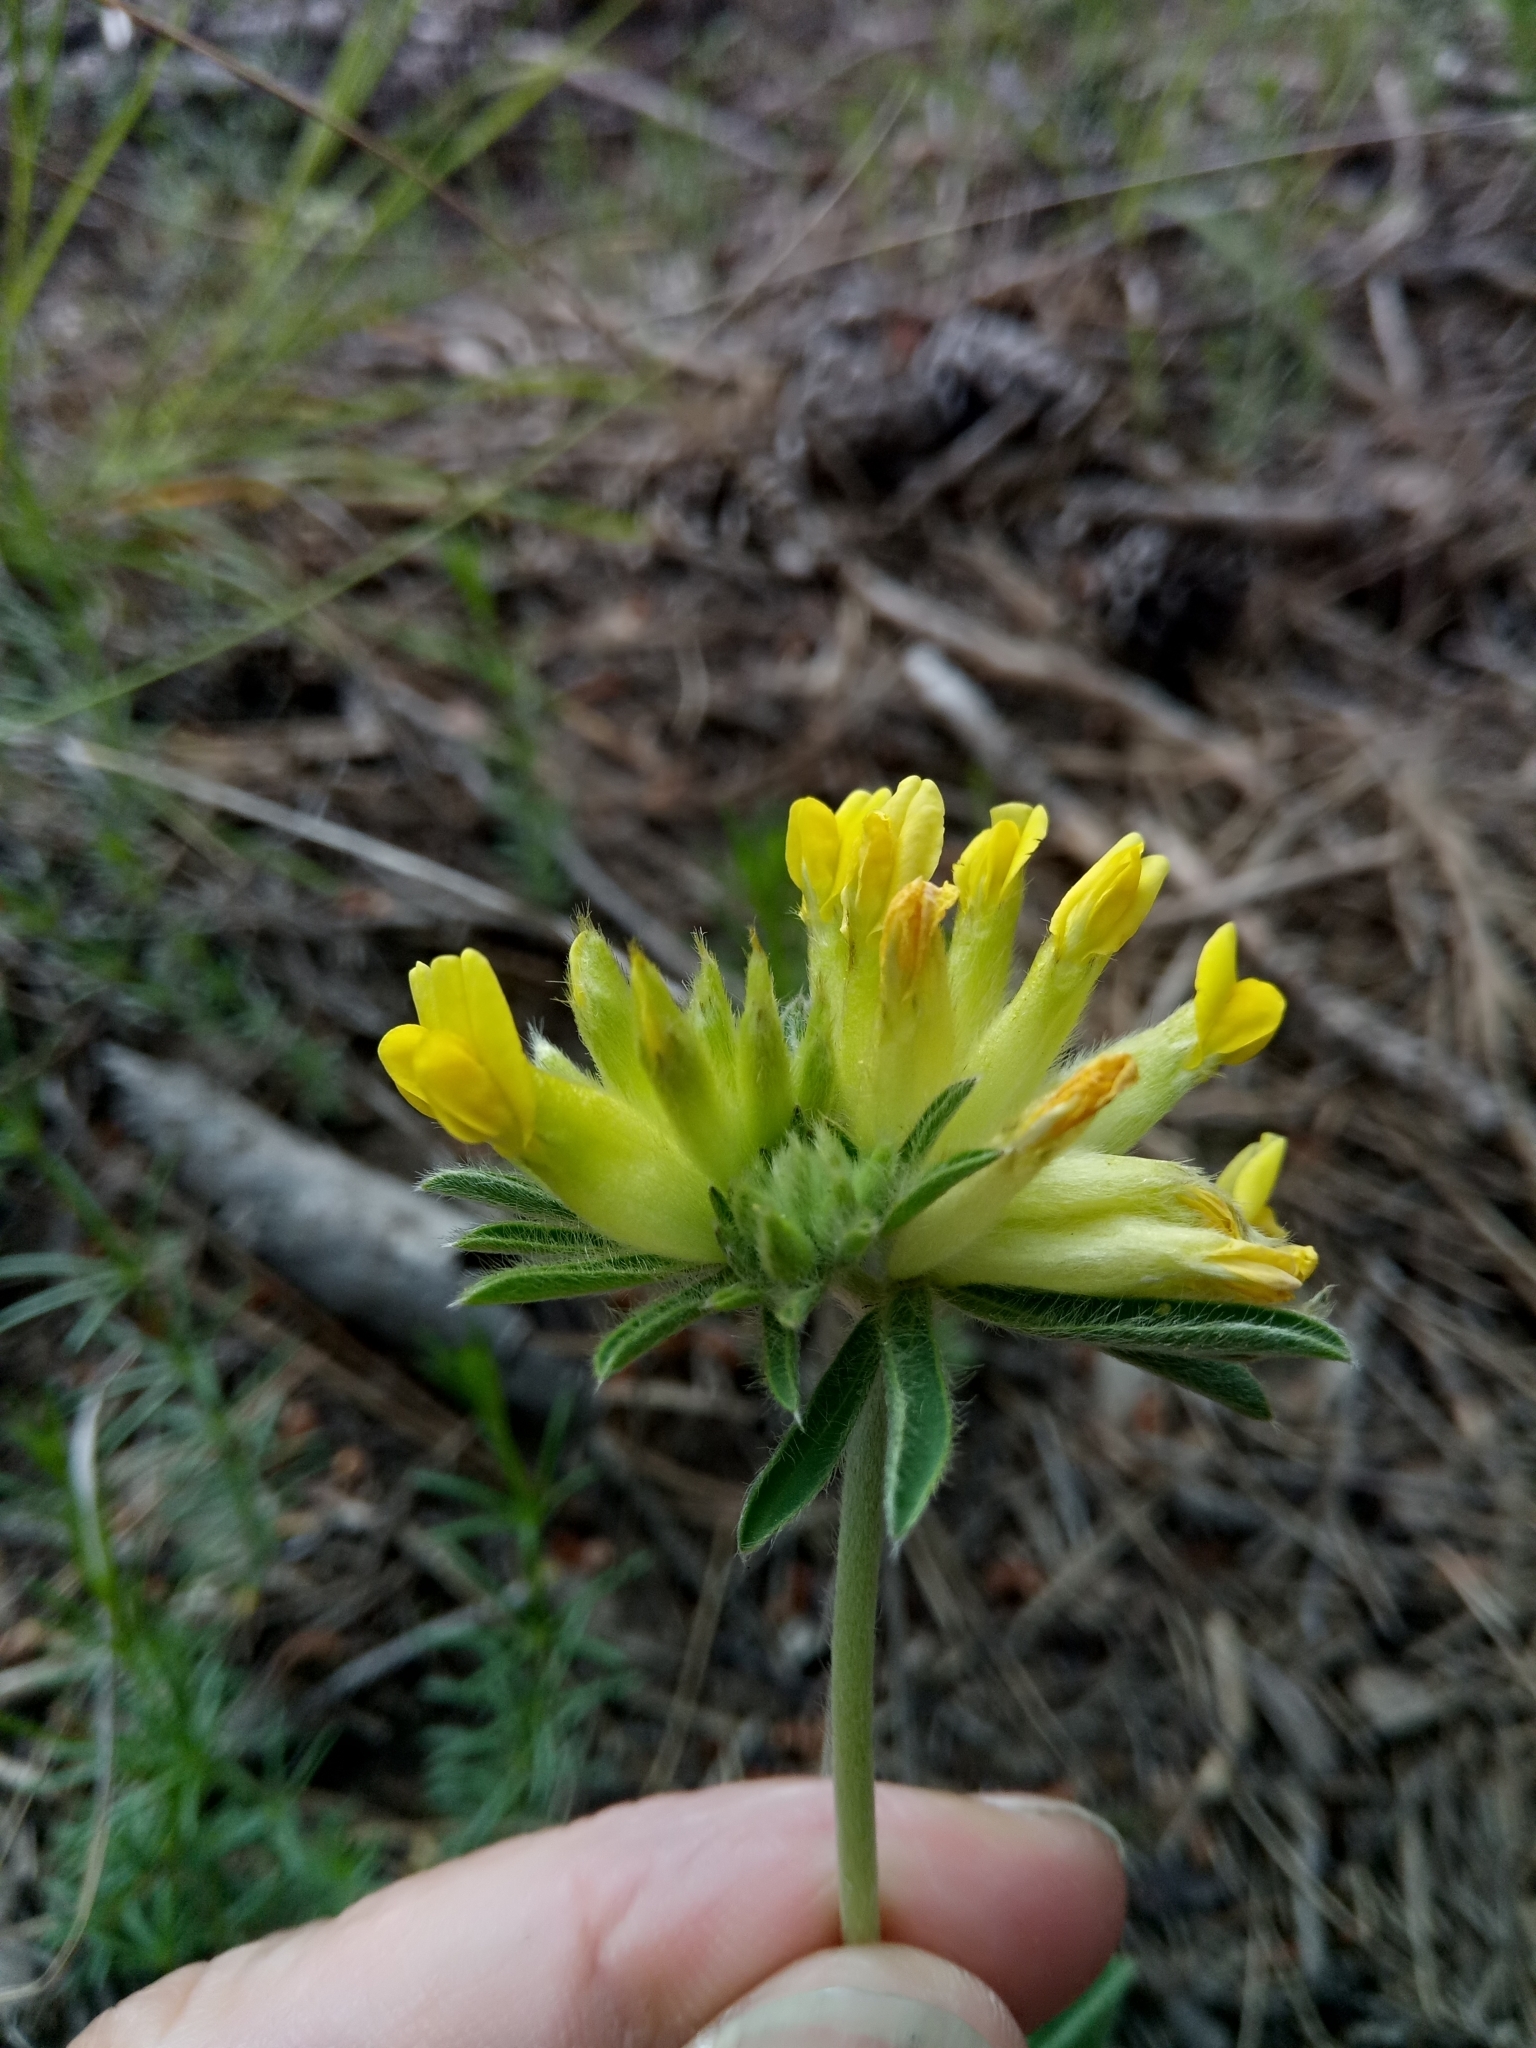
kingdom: Plantae
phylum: Tracheophyta
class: Magnoliopsida
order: Fabales
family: Fabaceae
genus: Anthyllis
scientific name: Anthyllis vulneraria
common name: Kidney vetch
